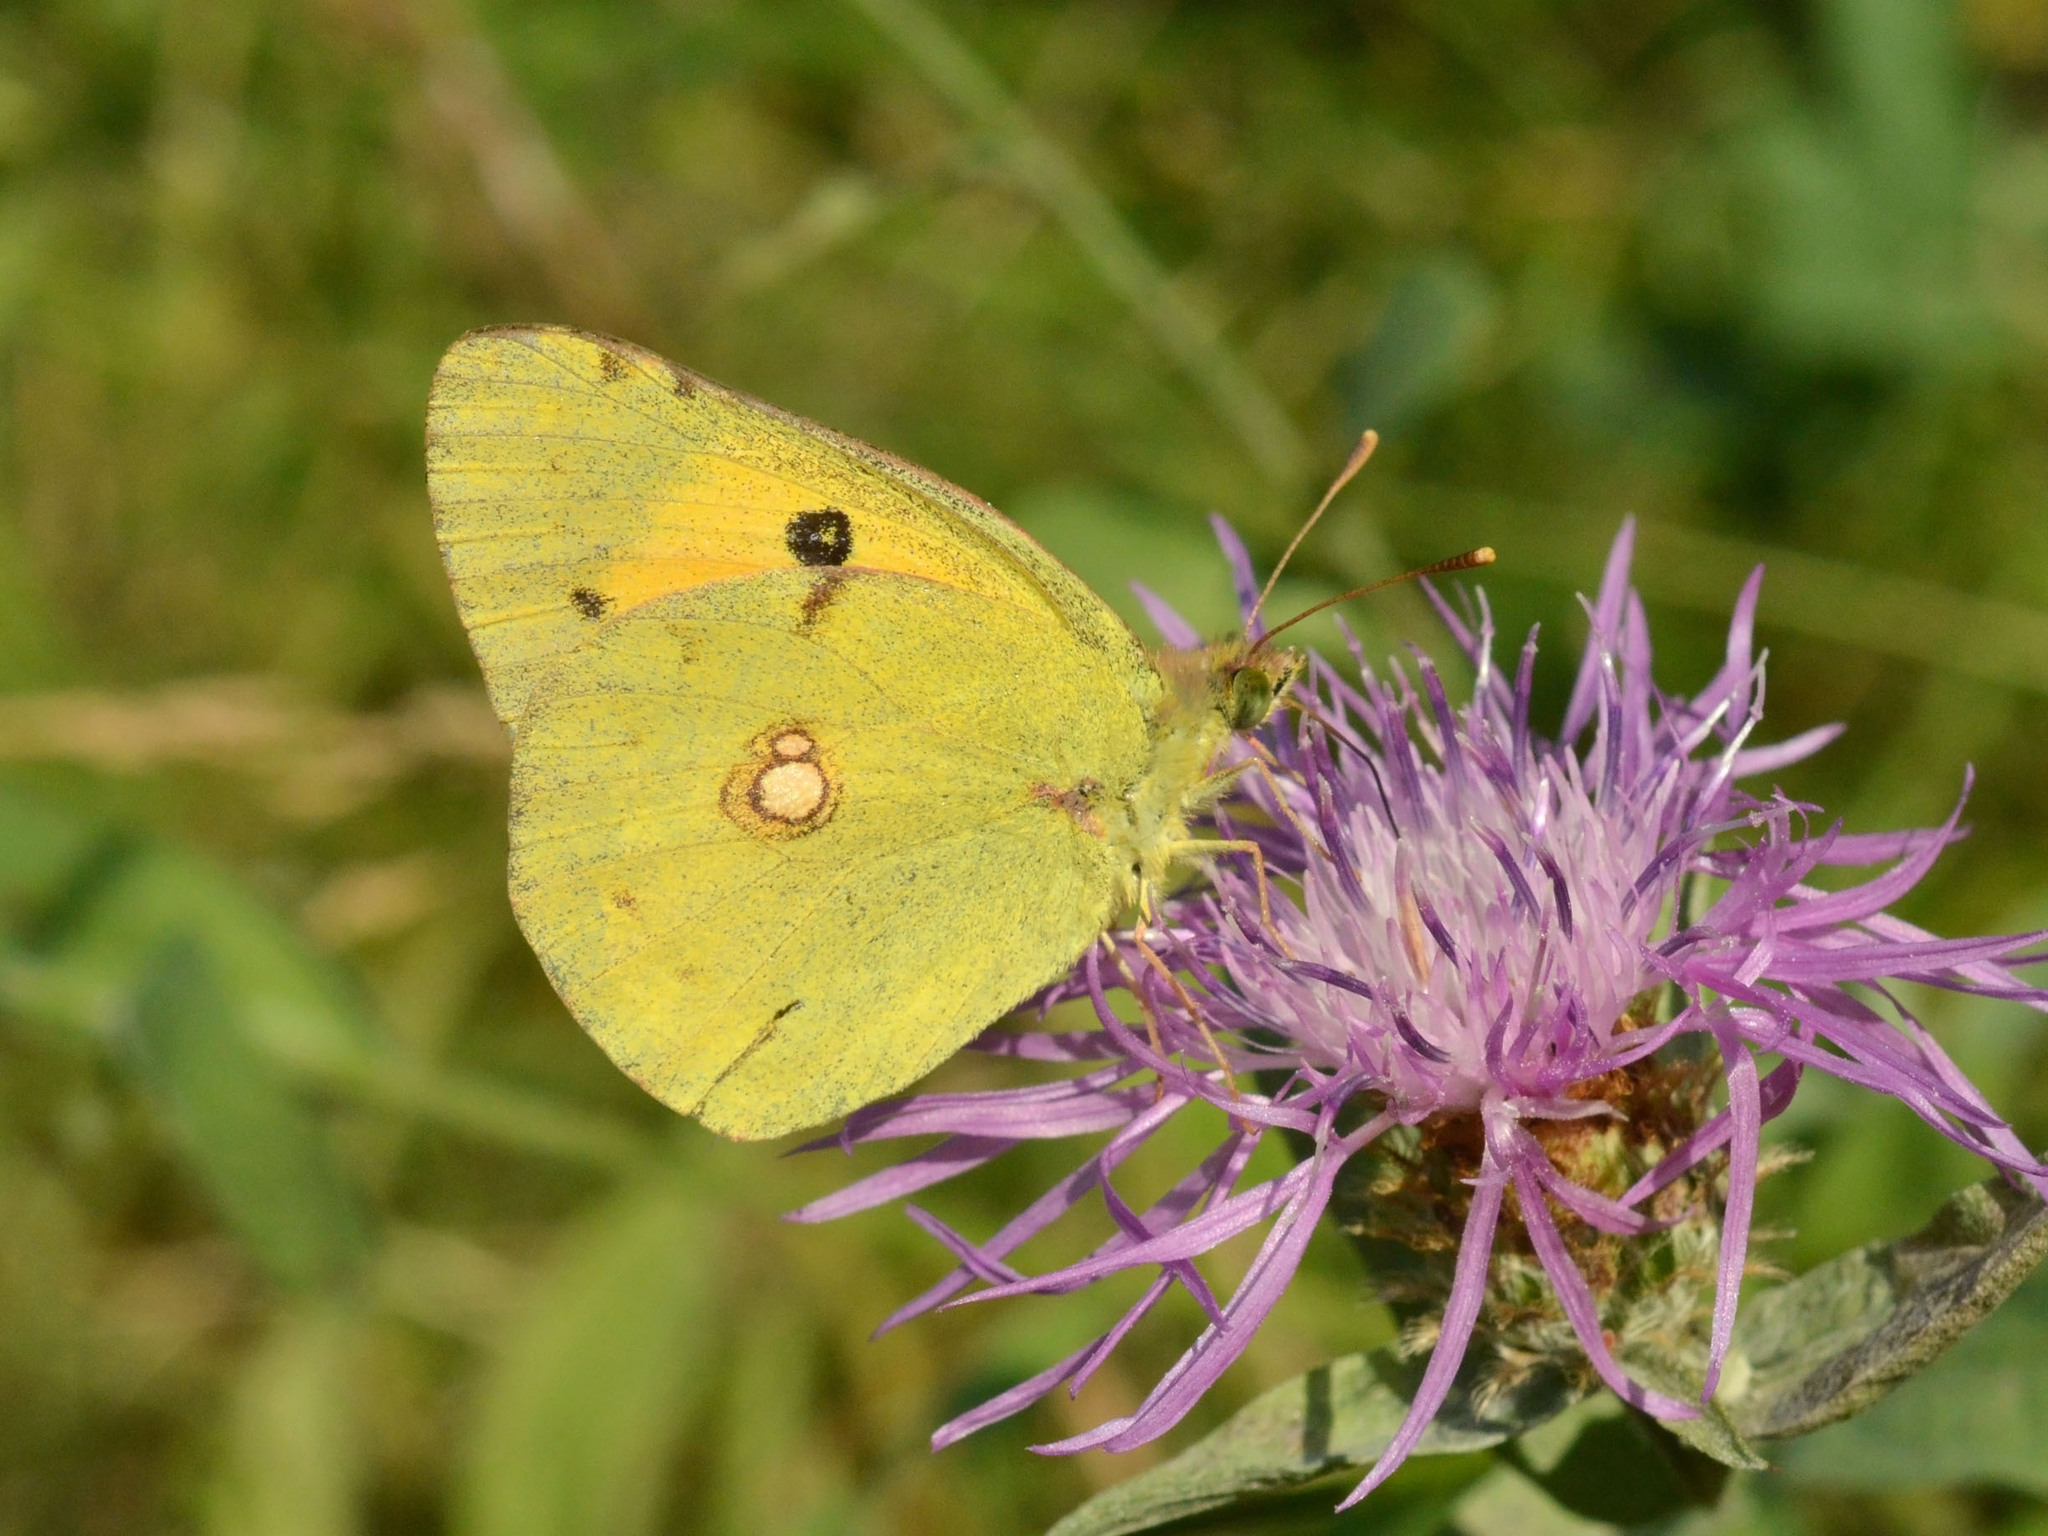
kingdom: Animalia
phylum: Arthropoda
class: Insecta
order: Lepidoptera
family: Pieridae
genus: Colias
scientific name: Colias croceus
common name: Clouded yellow
